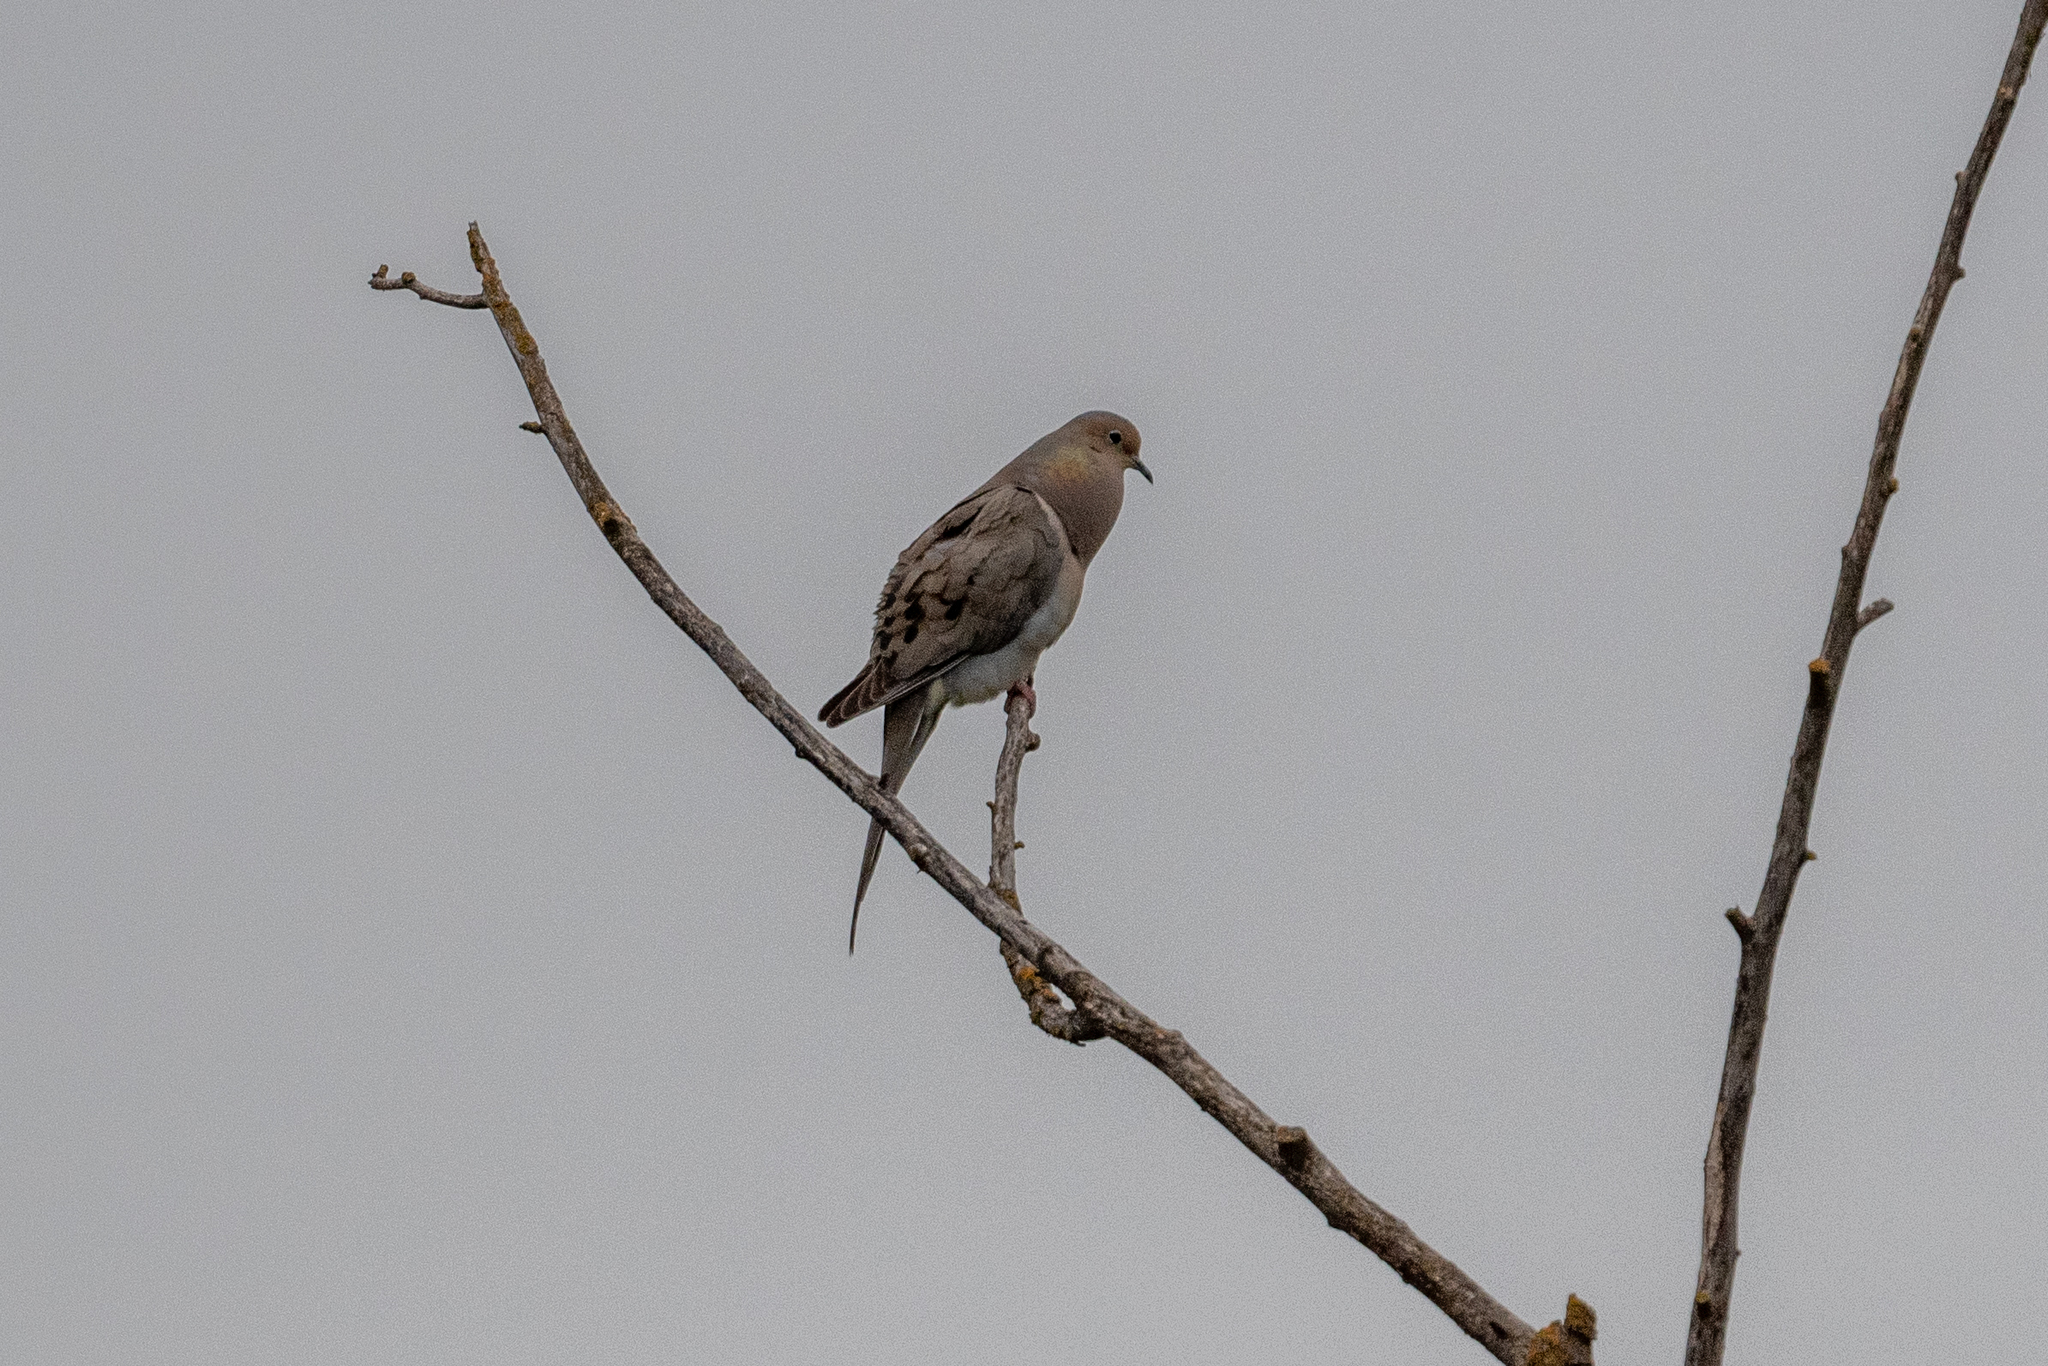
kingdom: Animalia
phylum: Chordata
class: Aves
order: Columbiformes
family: Columbidae
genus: Zenaida
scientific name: Zenaida macroura
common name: Mourning dove
